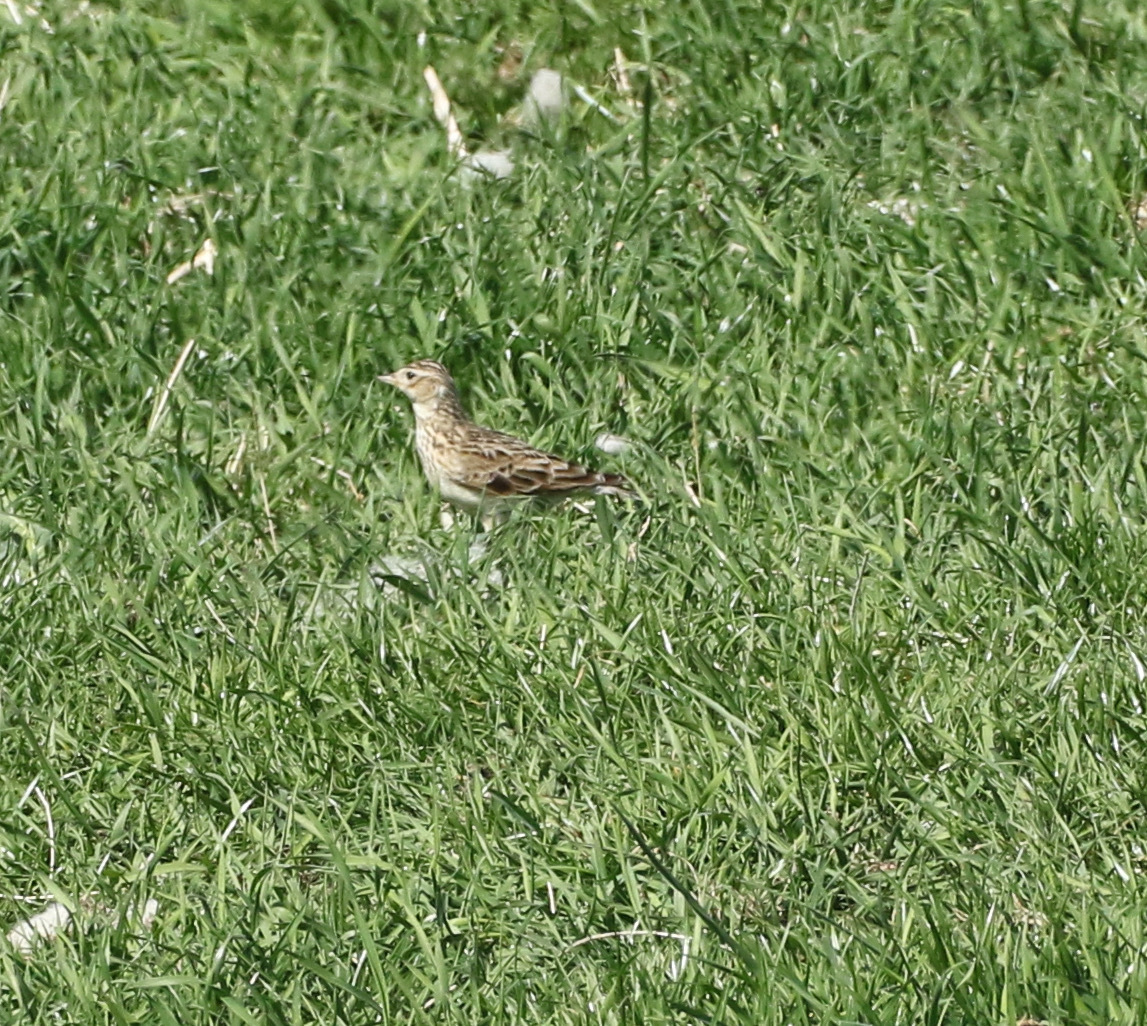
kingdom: Animalia
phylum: Chordata
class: Aves
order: Passeriformes
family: Alaudidae
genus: Alauda
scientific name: Alauda arvensis
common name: Eurasian skylark
